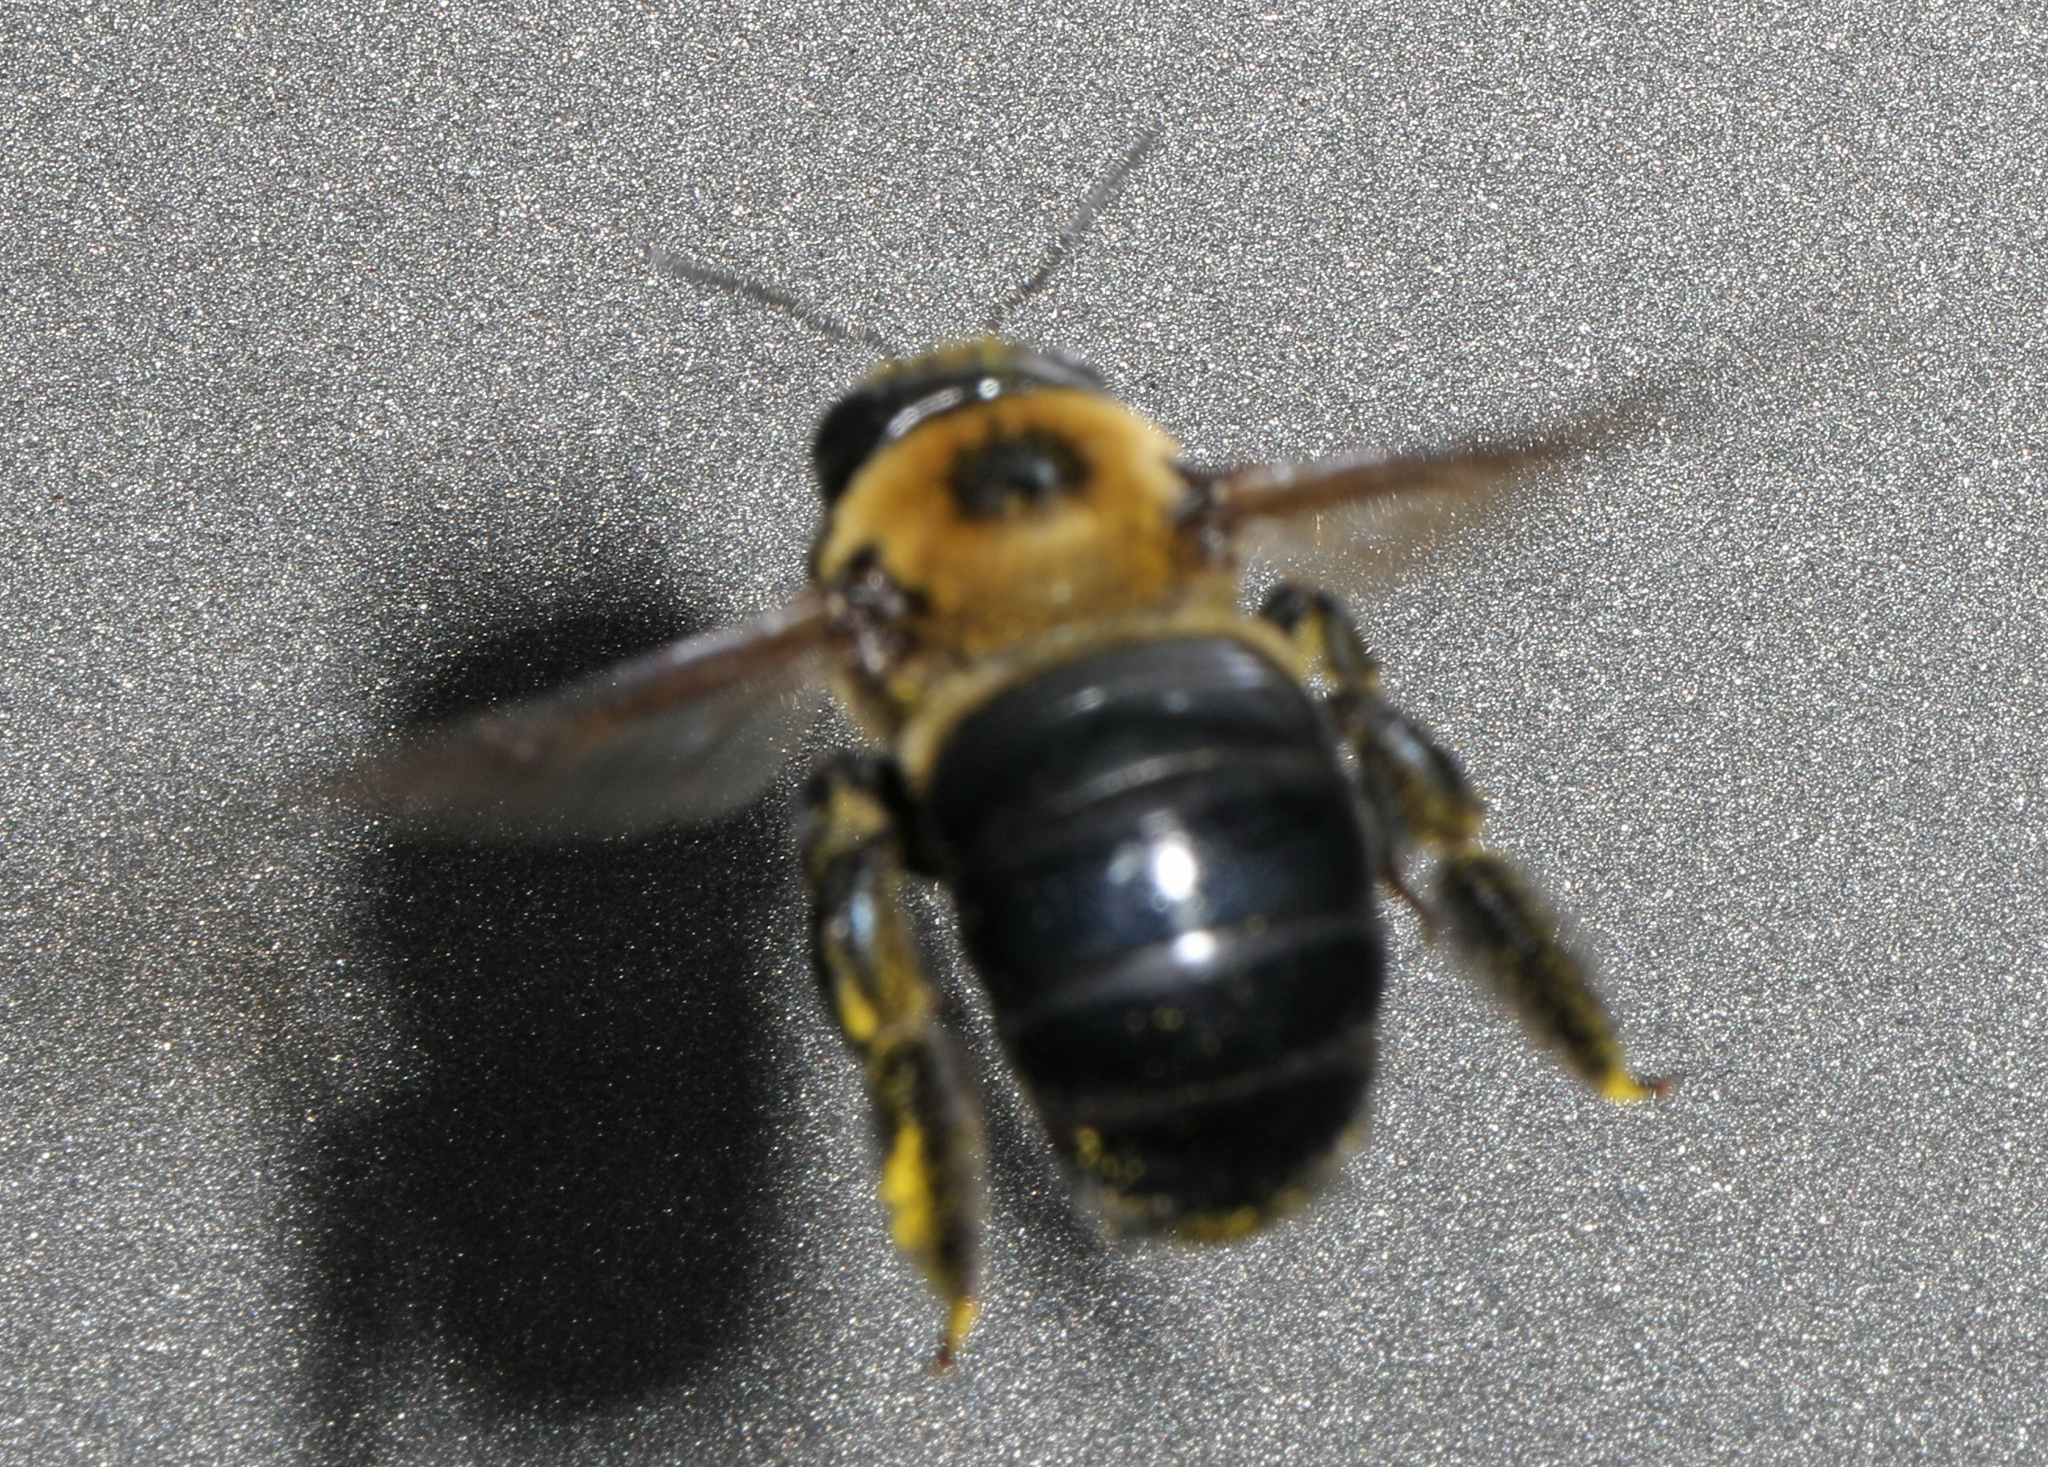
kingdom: Animalia
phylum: Arthropoda
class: Insecta
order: Hymenoptera
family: Apidae
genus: Xylocopa
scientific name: Xylocopa virginica
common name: Carpenter bee
